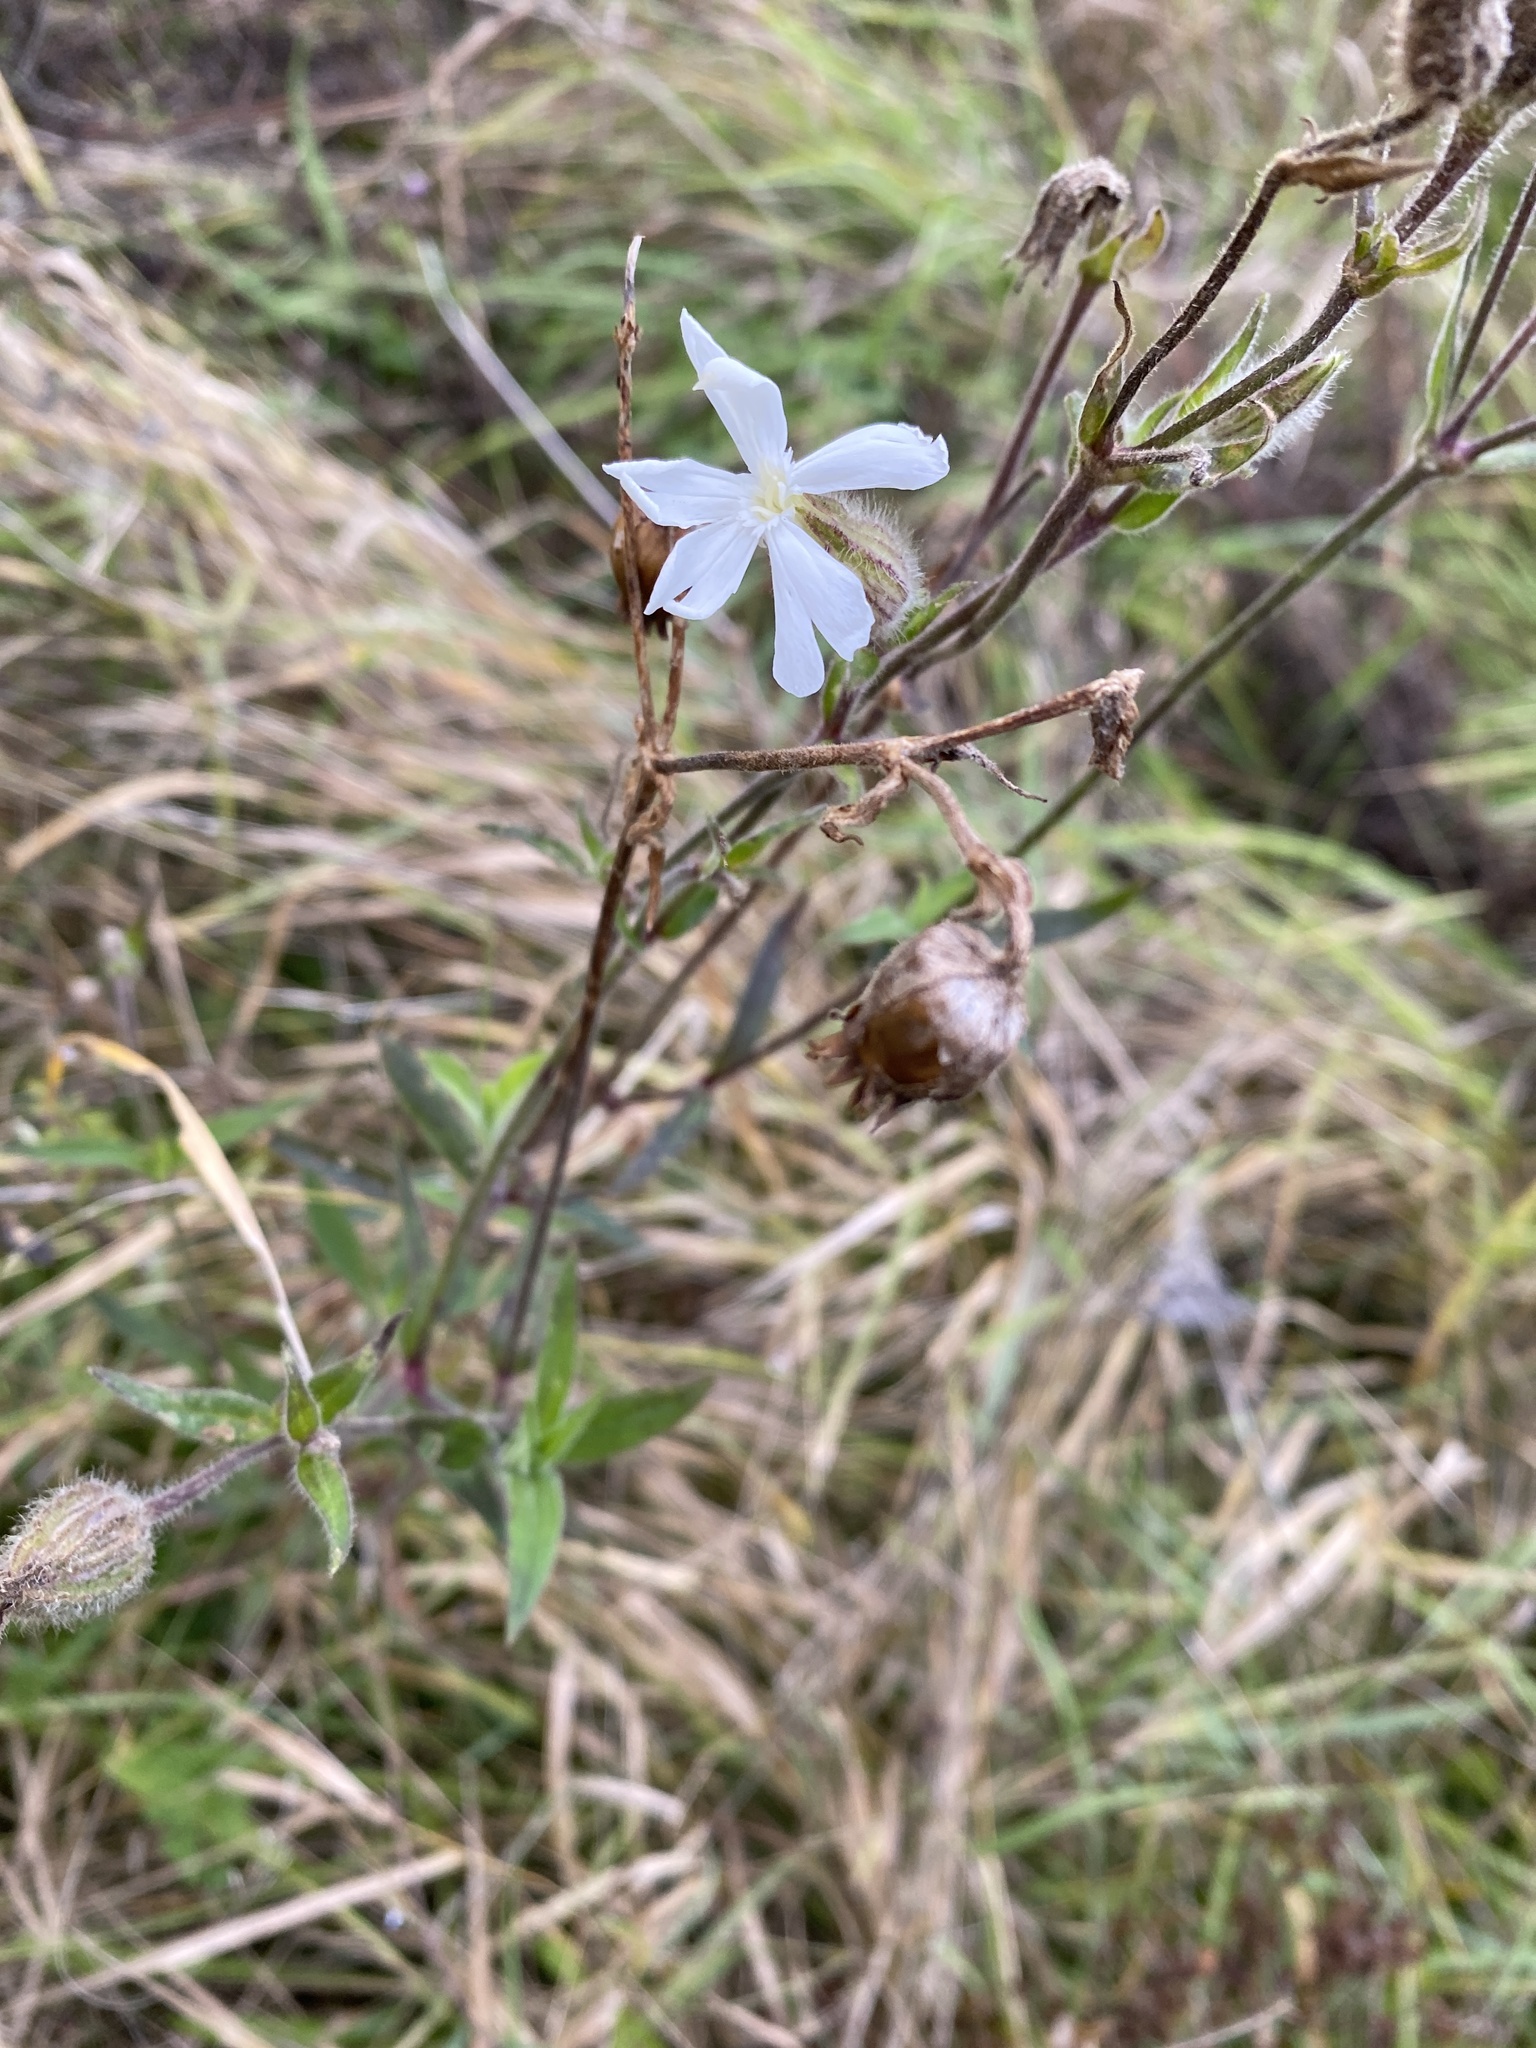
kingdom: Plantae
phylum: Tracheophyta
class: Magnoliopsida
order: Caryophyllales
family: Caryophyllaceae
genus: Silene
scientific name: Silene latifolia
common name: White campion
